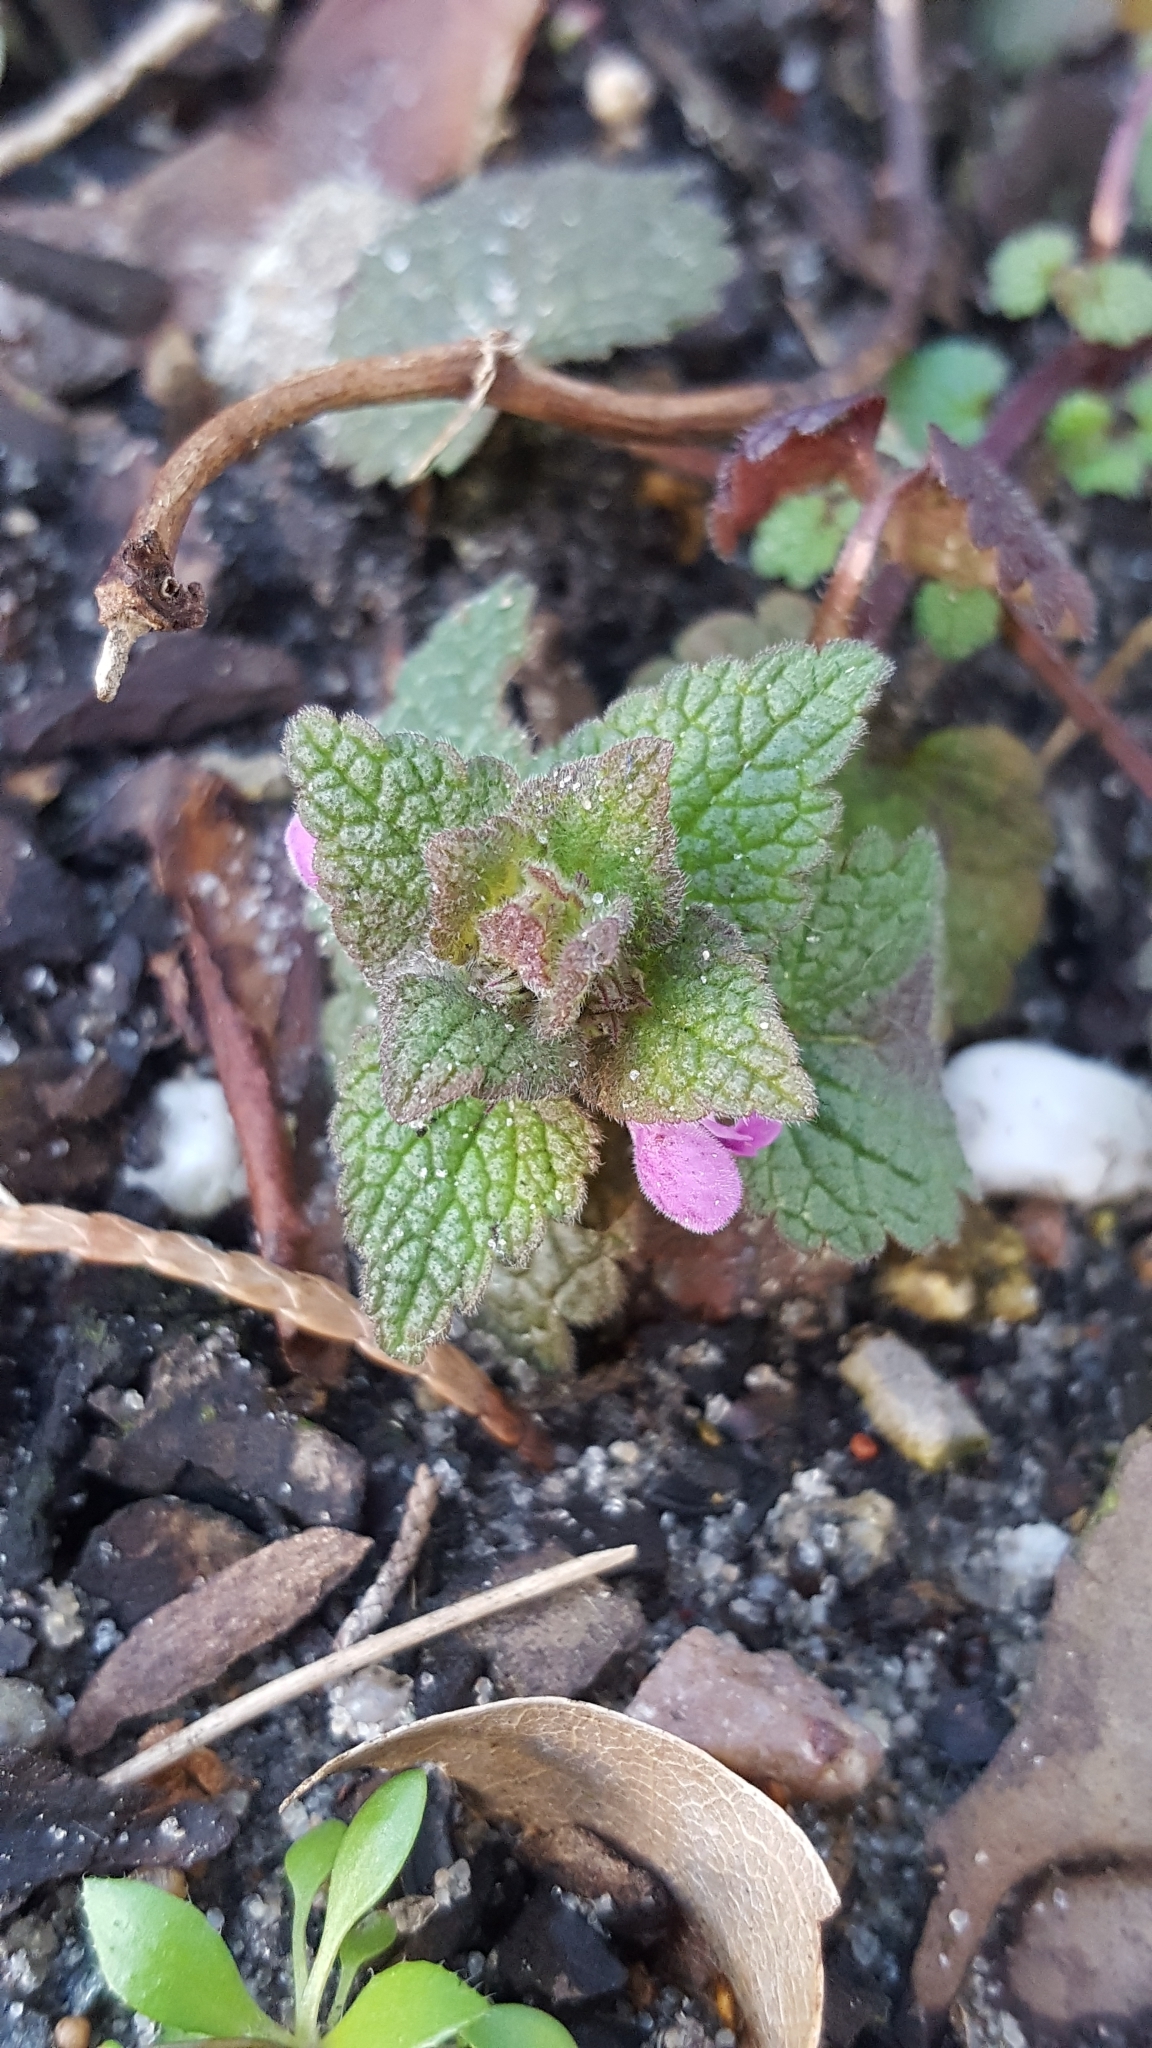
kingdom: Plantae
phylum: Tracheophyta
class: Magnoliopsida
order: Lamiales
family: Lamiaceae
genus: Lamium
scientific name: Lamium purpureum
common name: Red dead-nettle
